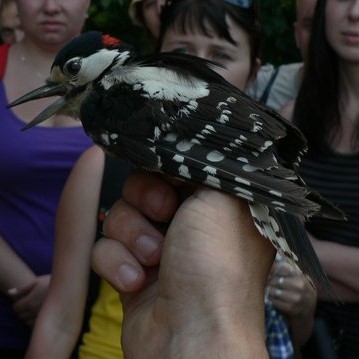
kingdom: Animalia
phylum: Chordata
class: Aves
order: Piciformes
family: Picidae
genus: Dendrocopos
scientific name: Dendrocopos major
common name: Great spotted woodpecker
